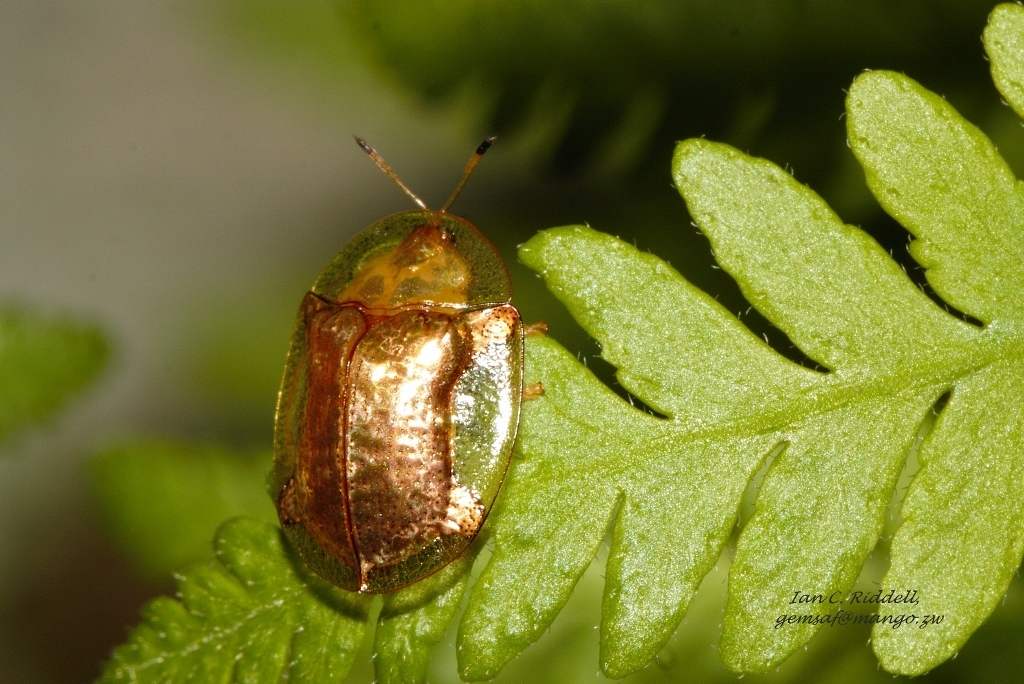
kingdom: Animalia
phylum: Arthropoda
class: Insecta
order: Coleoptera
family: Chrysomelidae
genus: Aspidimorpha
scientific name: Aspidimorpha quadriremis
